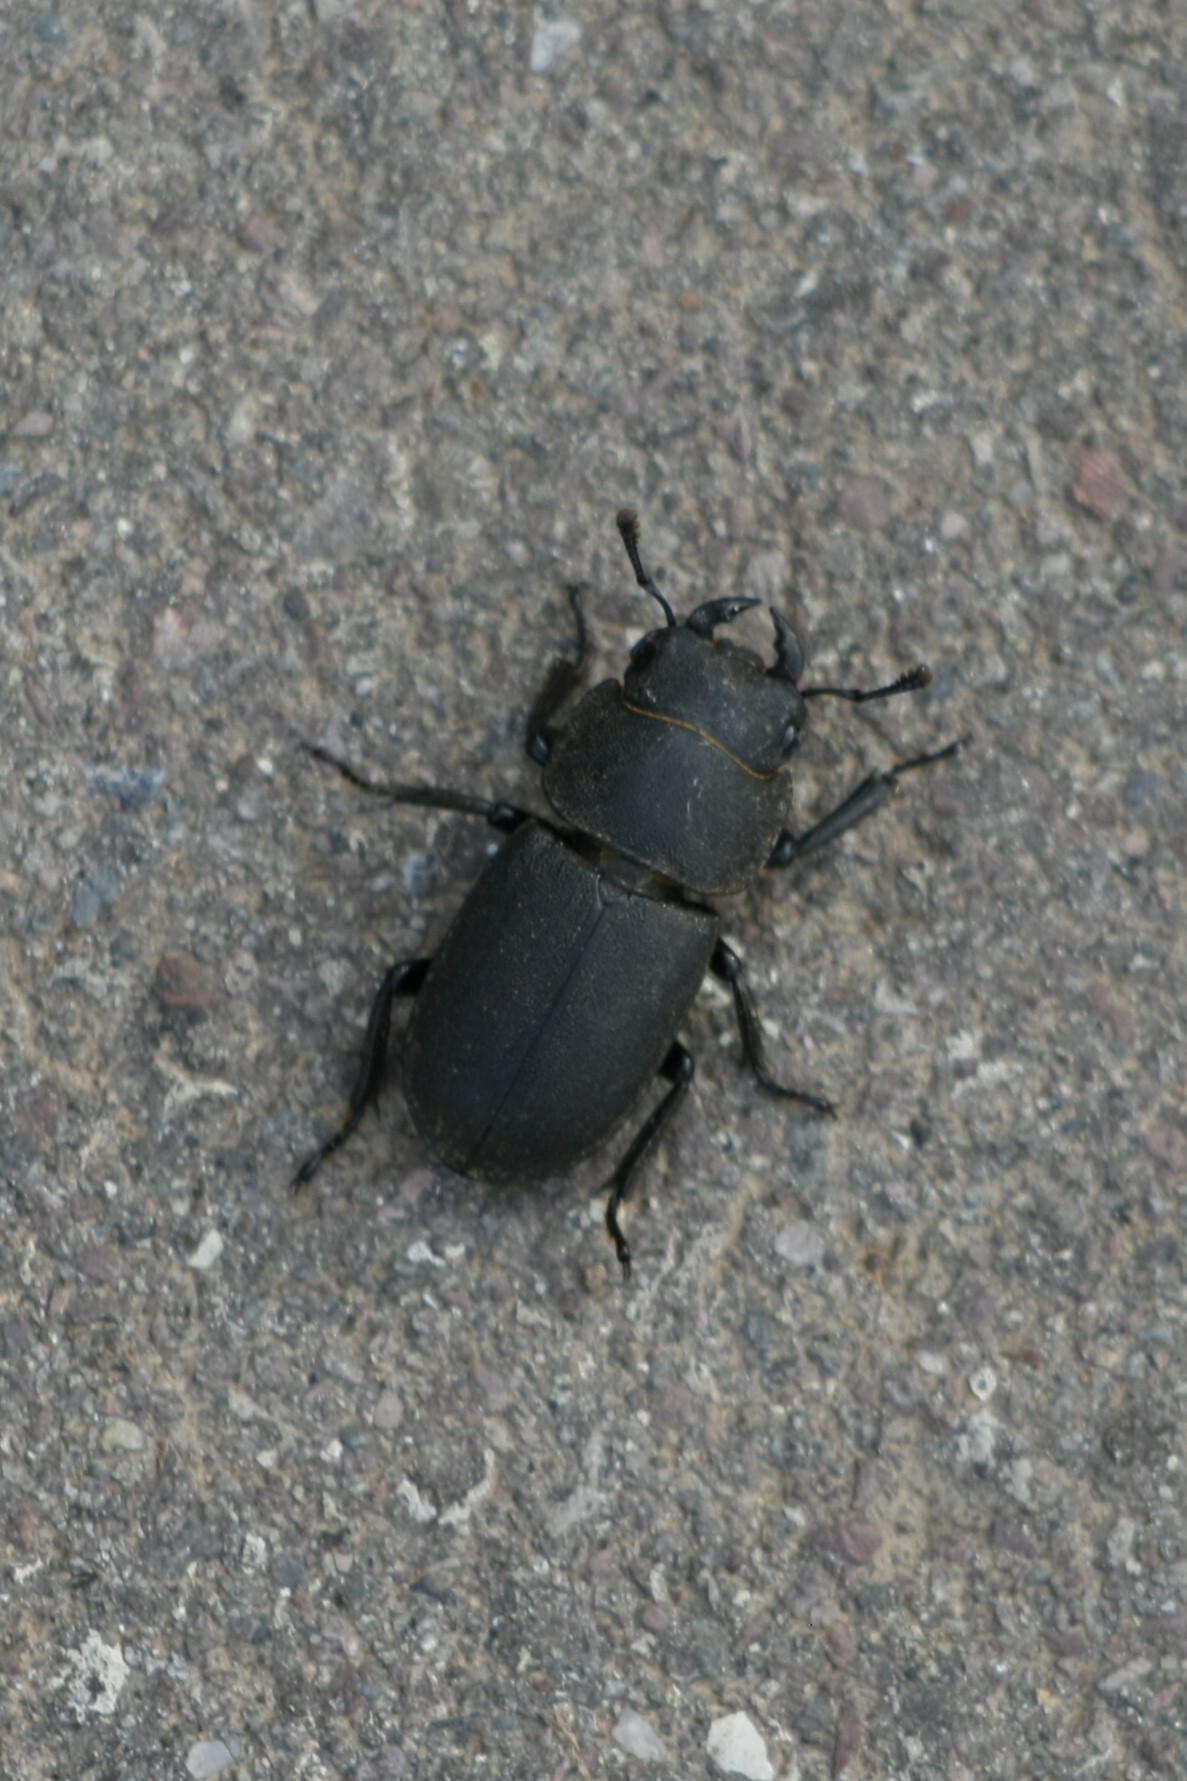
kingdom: Animalia
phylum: Arthropoda
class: Insecta
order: Coleoptera
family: Lucanidae
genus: Dorcus
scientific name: Dorcus parallelipipedus
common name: Lesser stag beetle
